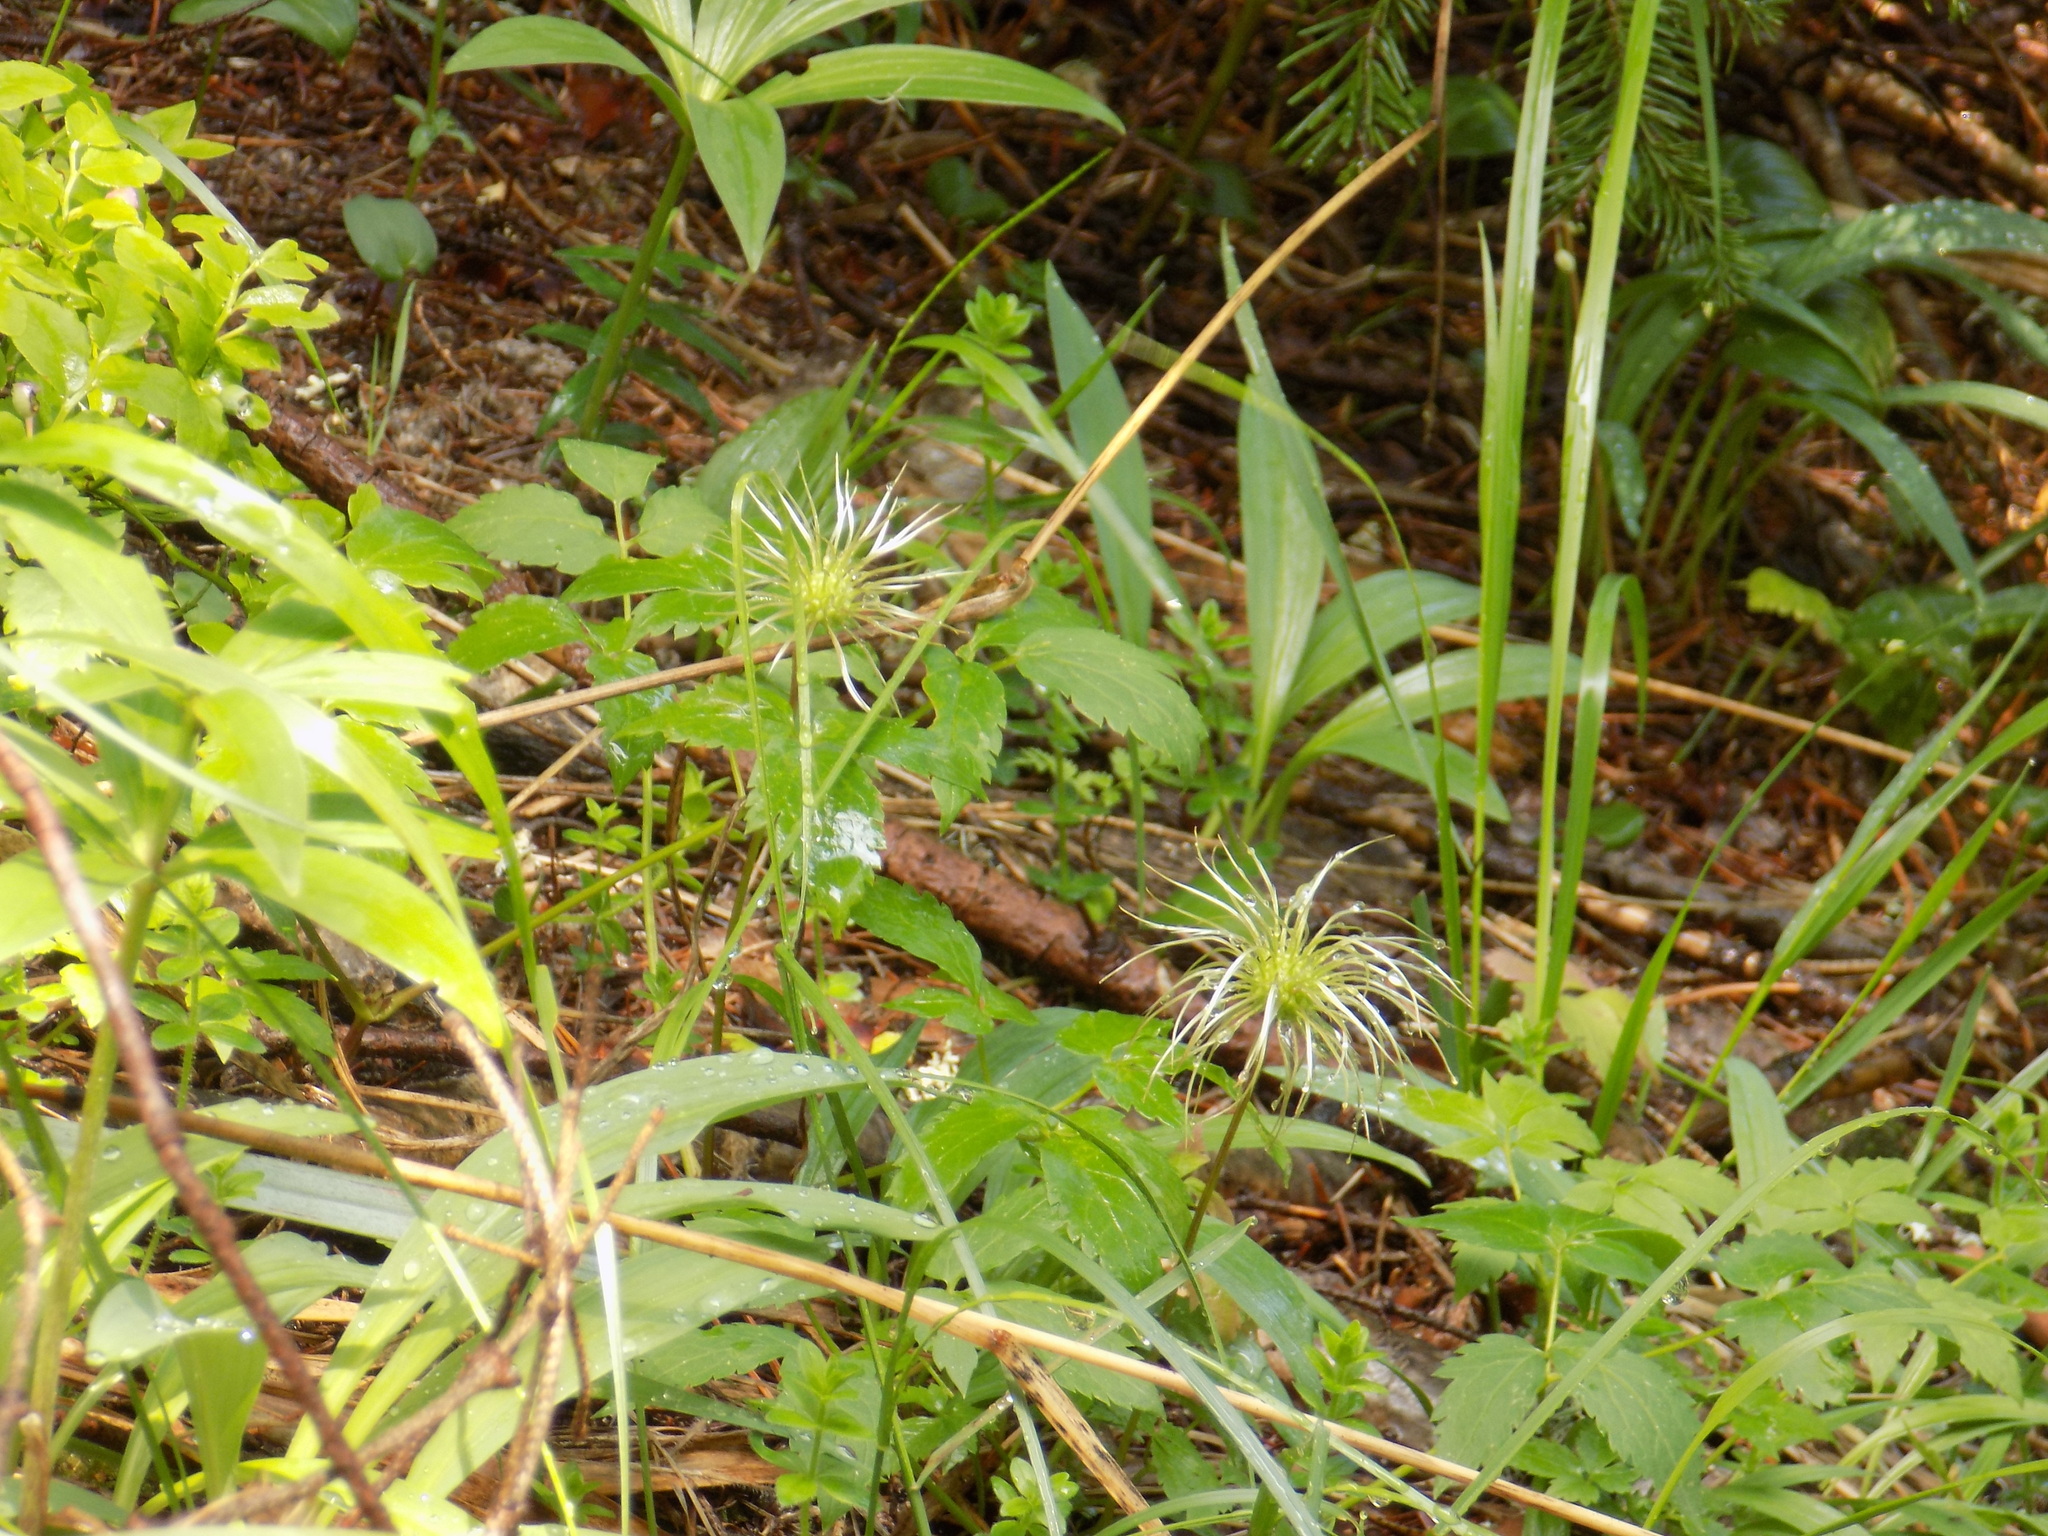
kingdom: Plantae
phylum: Tracheophyta
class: Magnoliopsida
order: Ranunculales
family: Ranunculaceae
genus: Clematis
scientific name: Clematis sibirica
